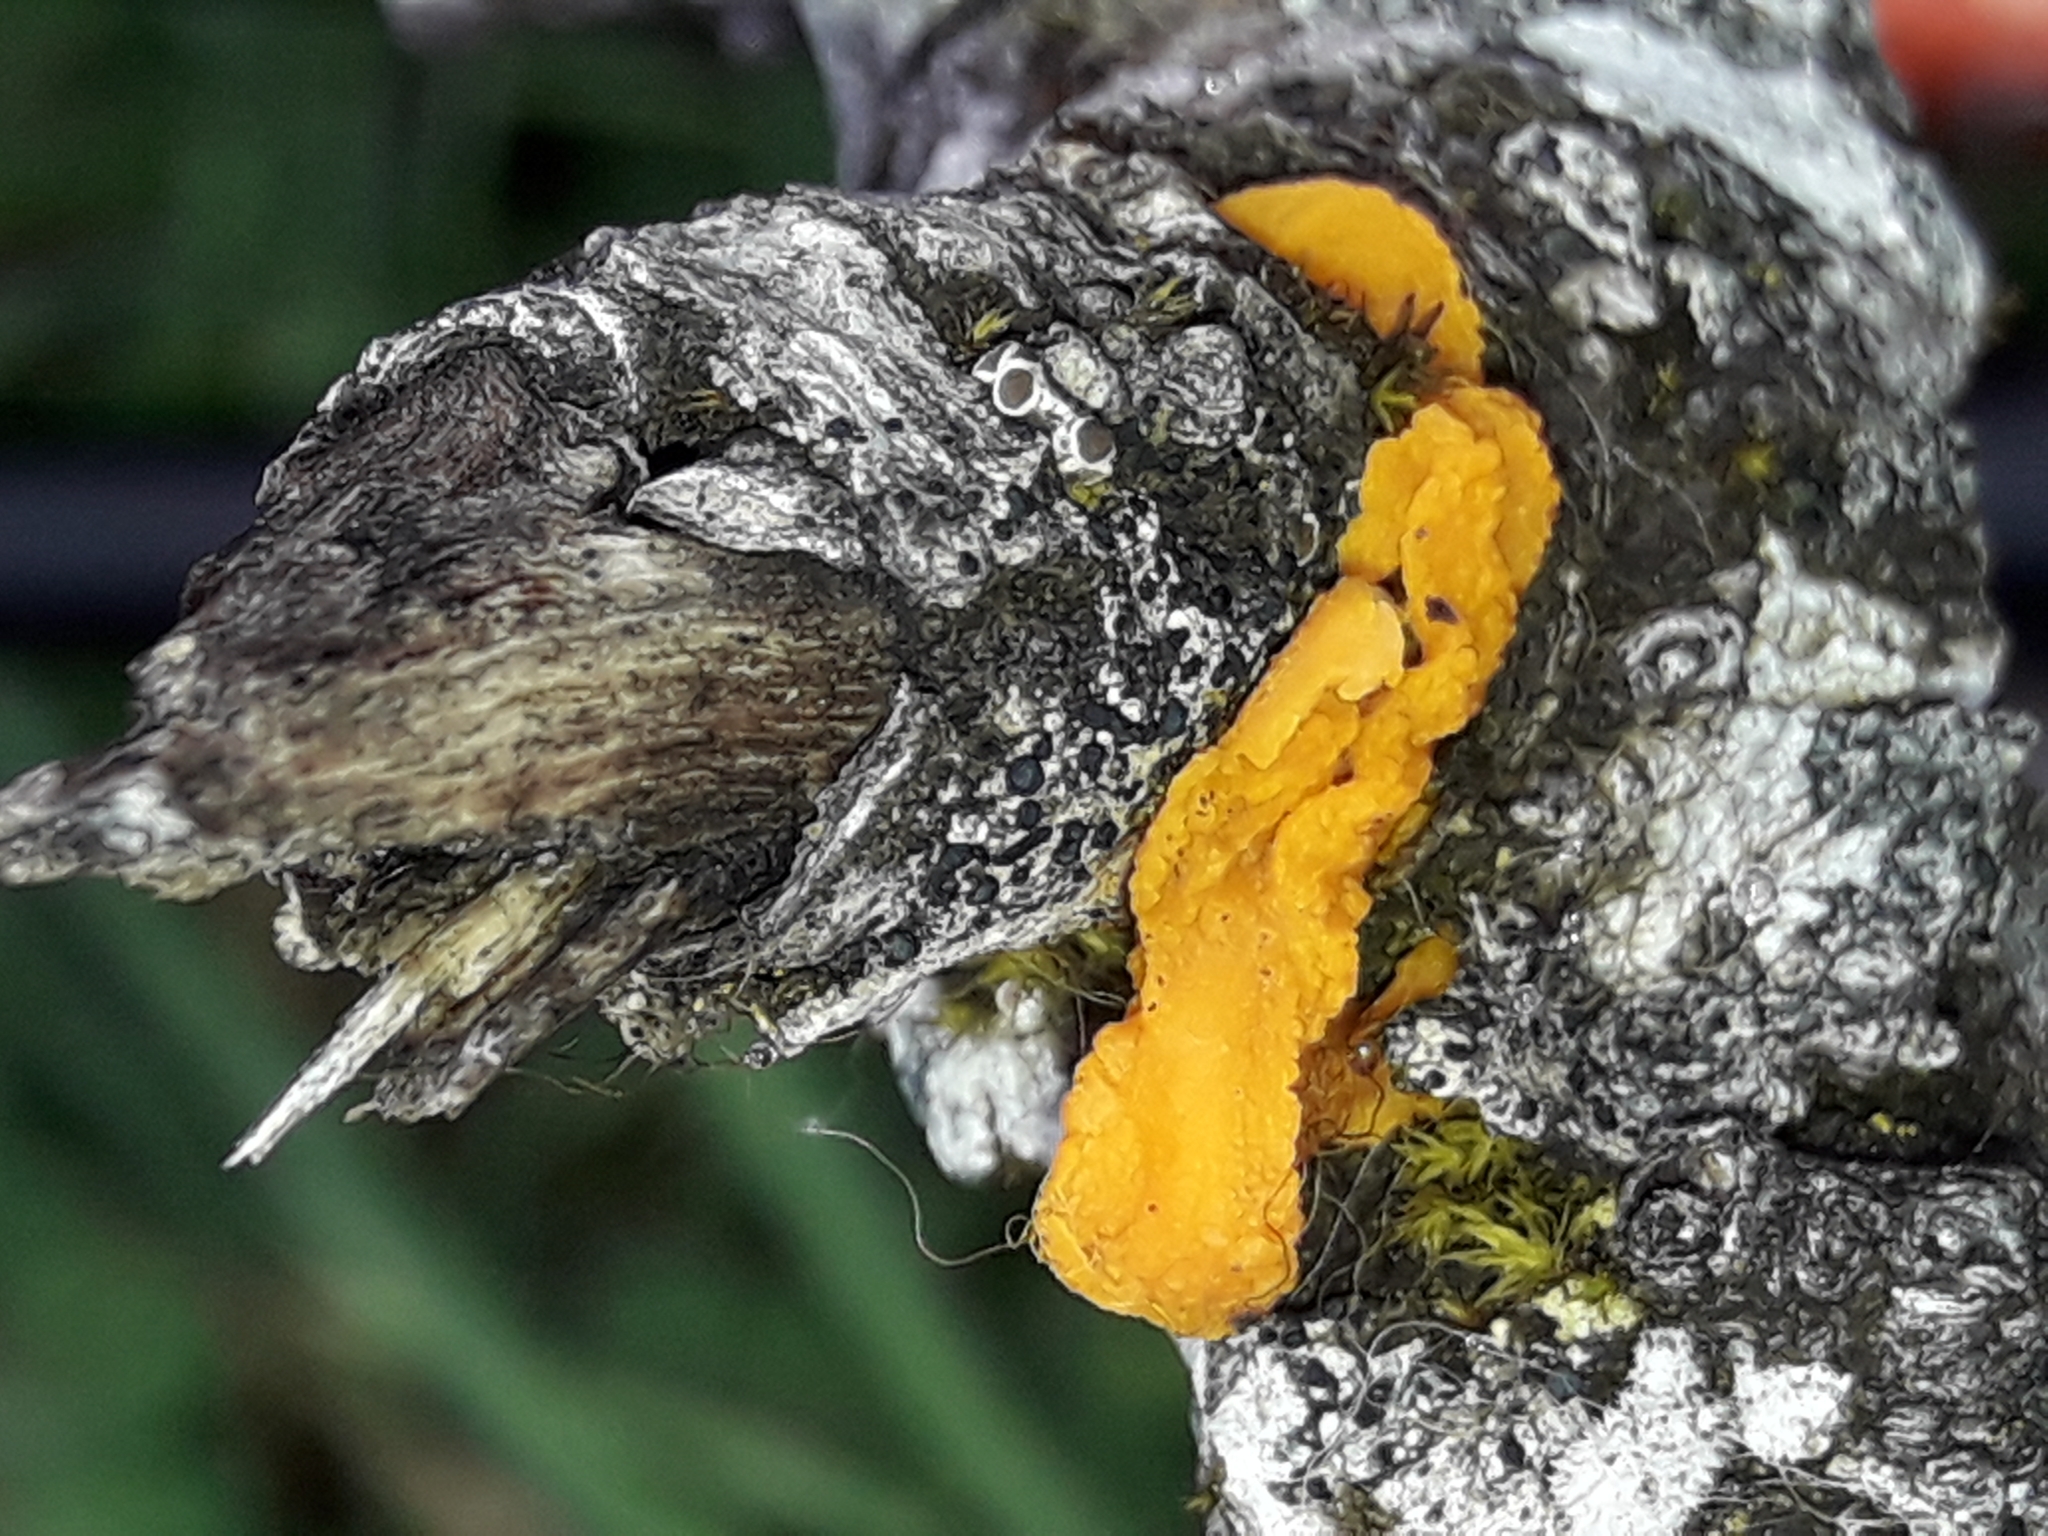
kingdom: Fungi
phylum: Basidiomycota
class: Tremellomycetes
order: Tremellales
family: Tremellaceae
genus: Tremella
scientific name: Tremella mesenterica
